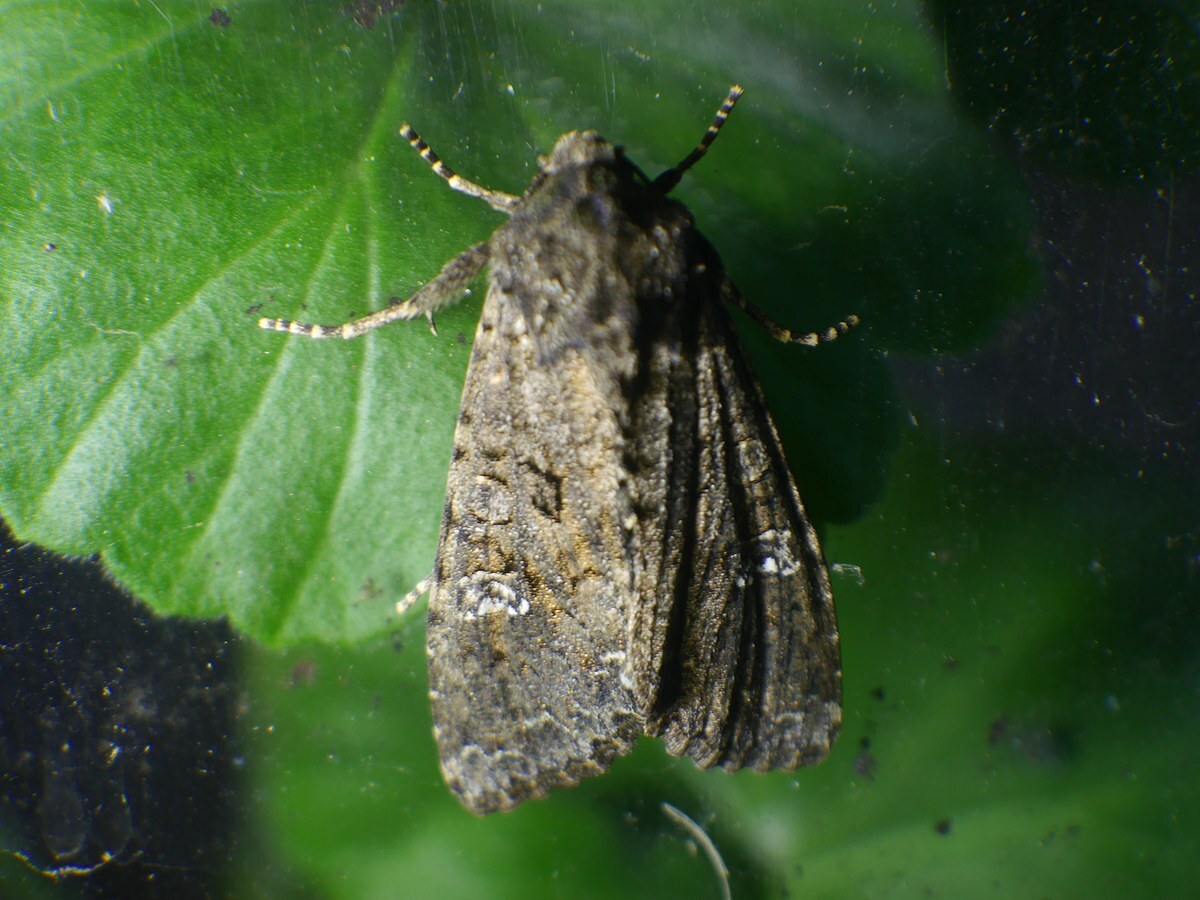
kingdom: Animalia
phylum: Arthropoda
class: Insecta
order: Lepidoptera
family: Noctuidae
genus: Mamestra
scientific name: Mamestra brassicae
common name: Cabbage moth
